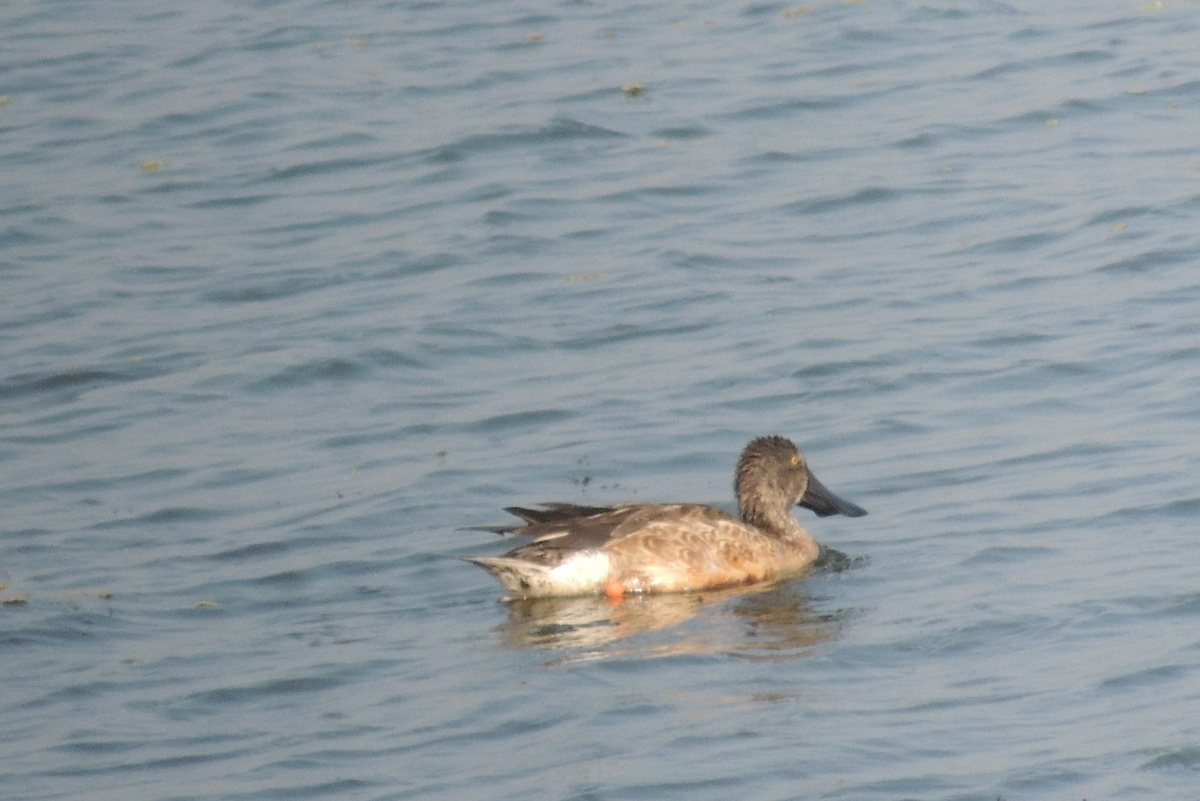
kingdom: Animalia
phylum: Chordata
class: Aves
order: Anseriformes
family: Anatidae
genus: Spatula
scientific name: Spatula clypeata
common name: Northern shoveler
